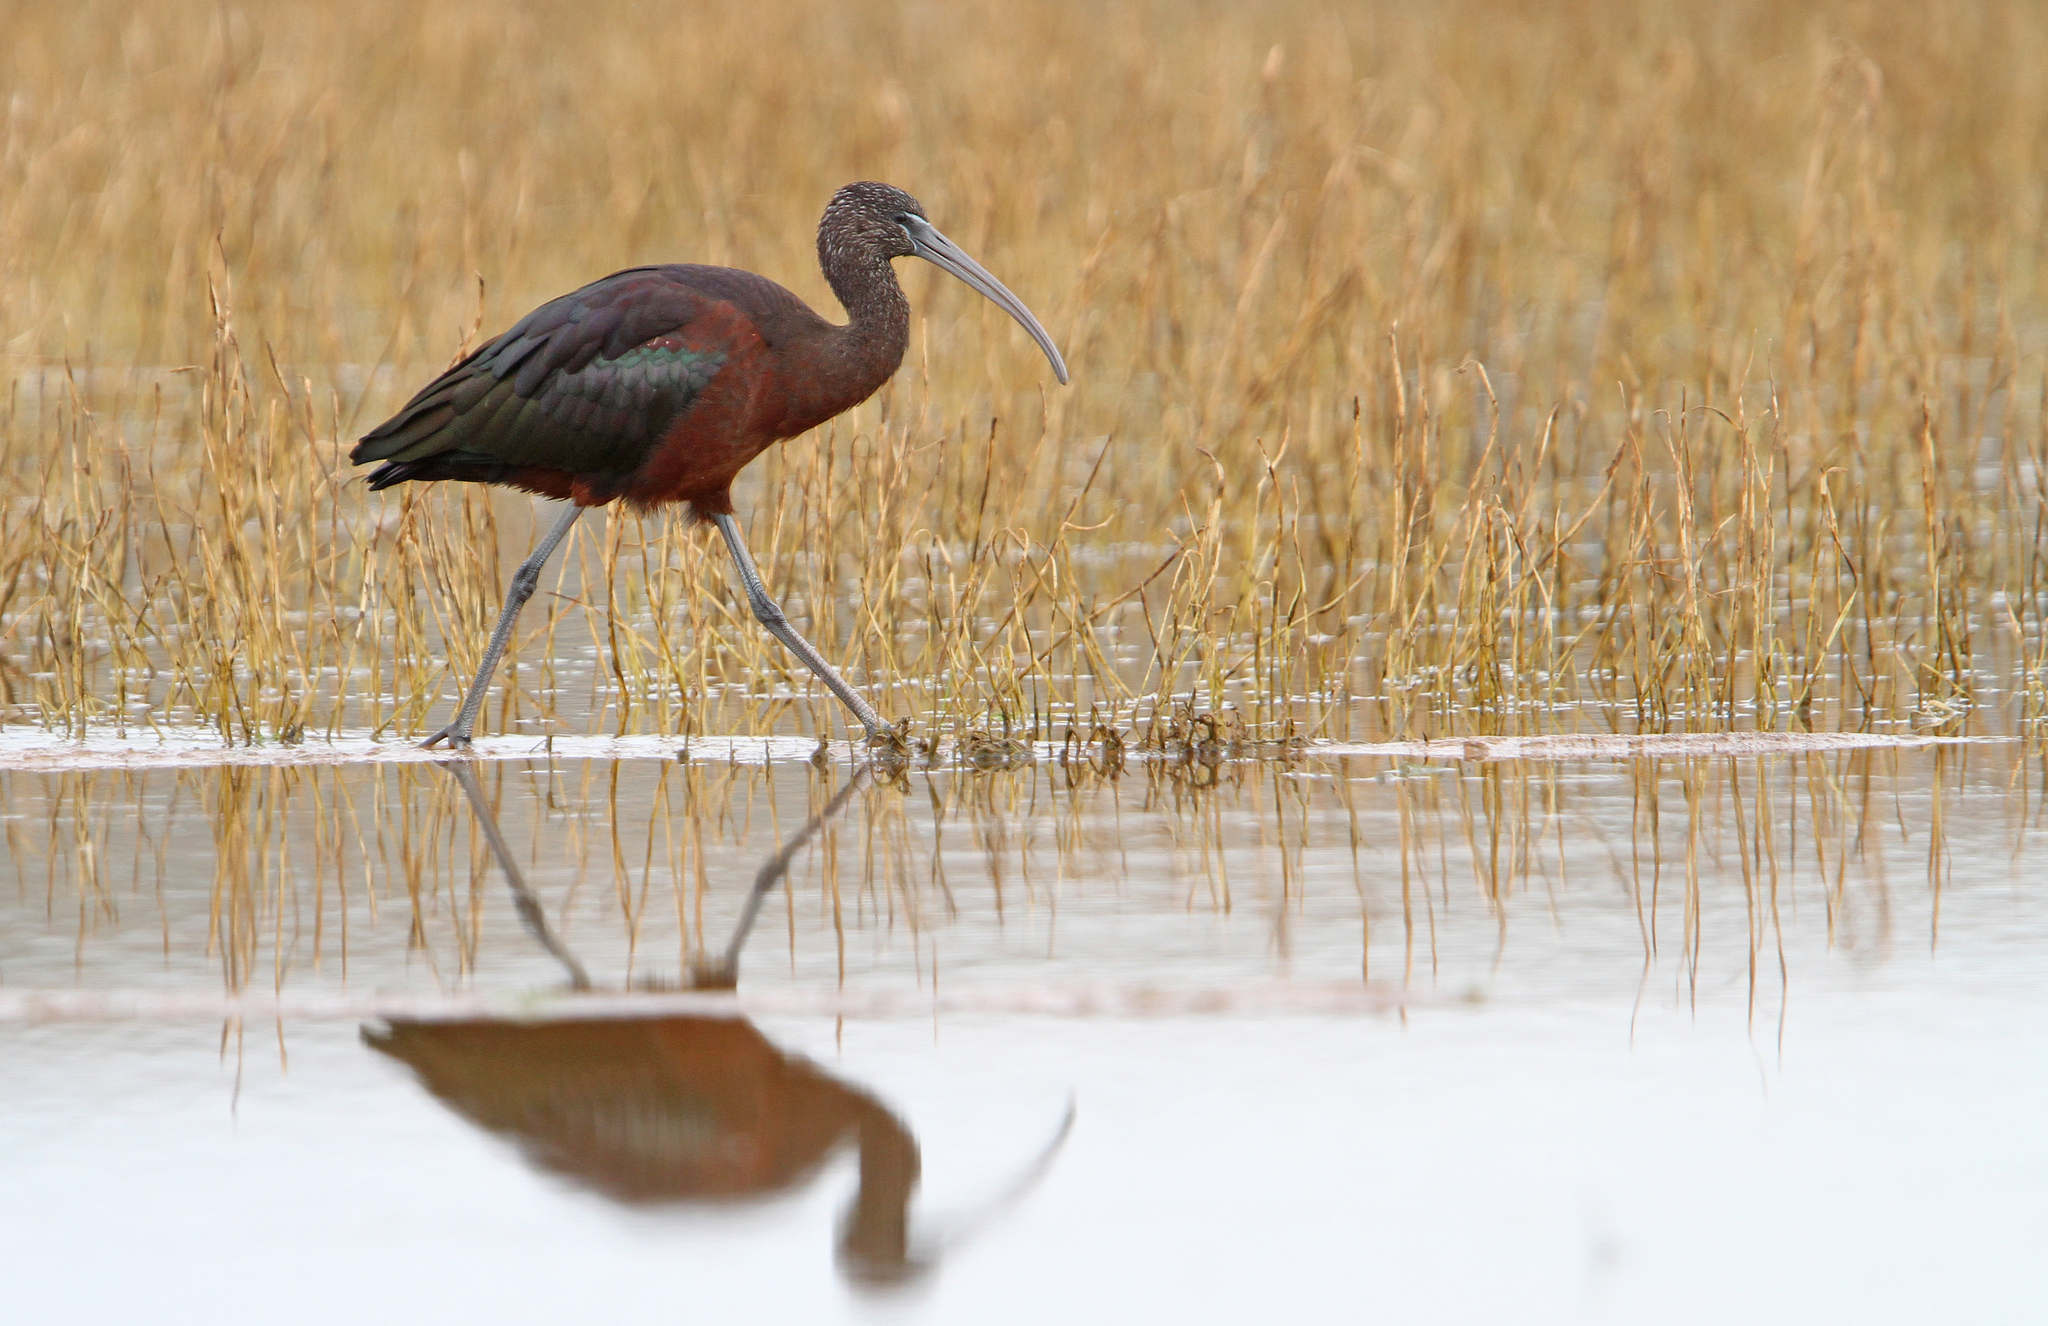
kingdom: Animalia
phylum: Chordata
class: Aves
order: Pelecaniformes
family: Threskiornithidae
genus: Plegadis
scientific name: Plegadis falcinellus
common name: Glossy ibis
